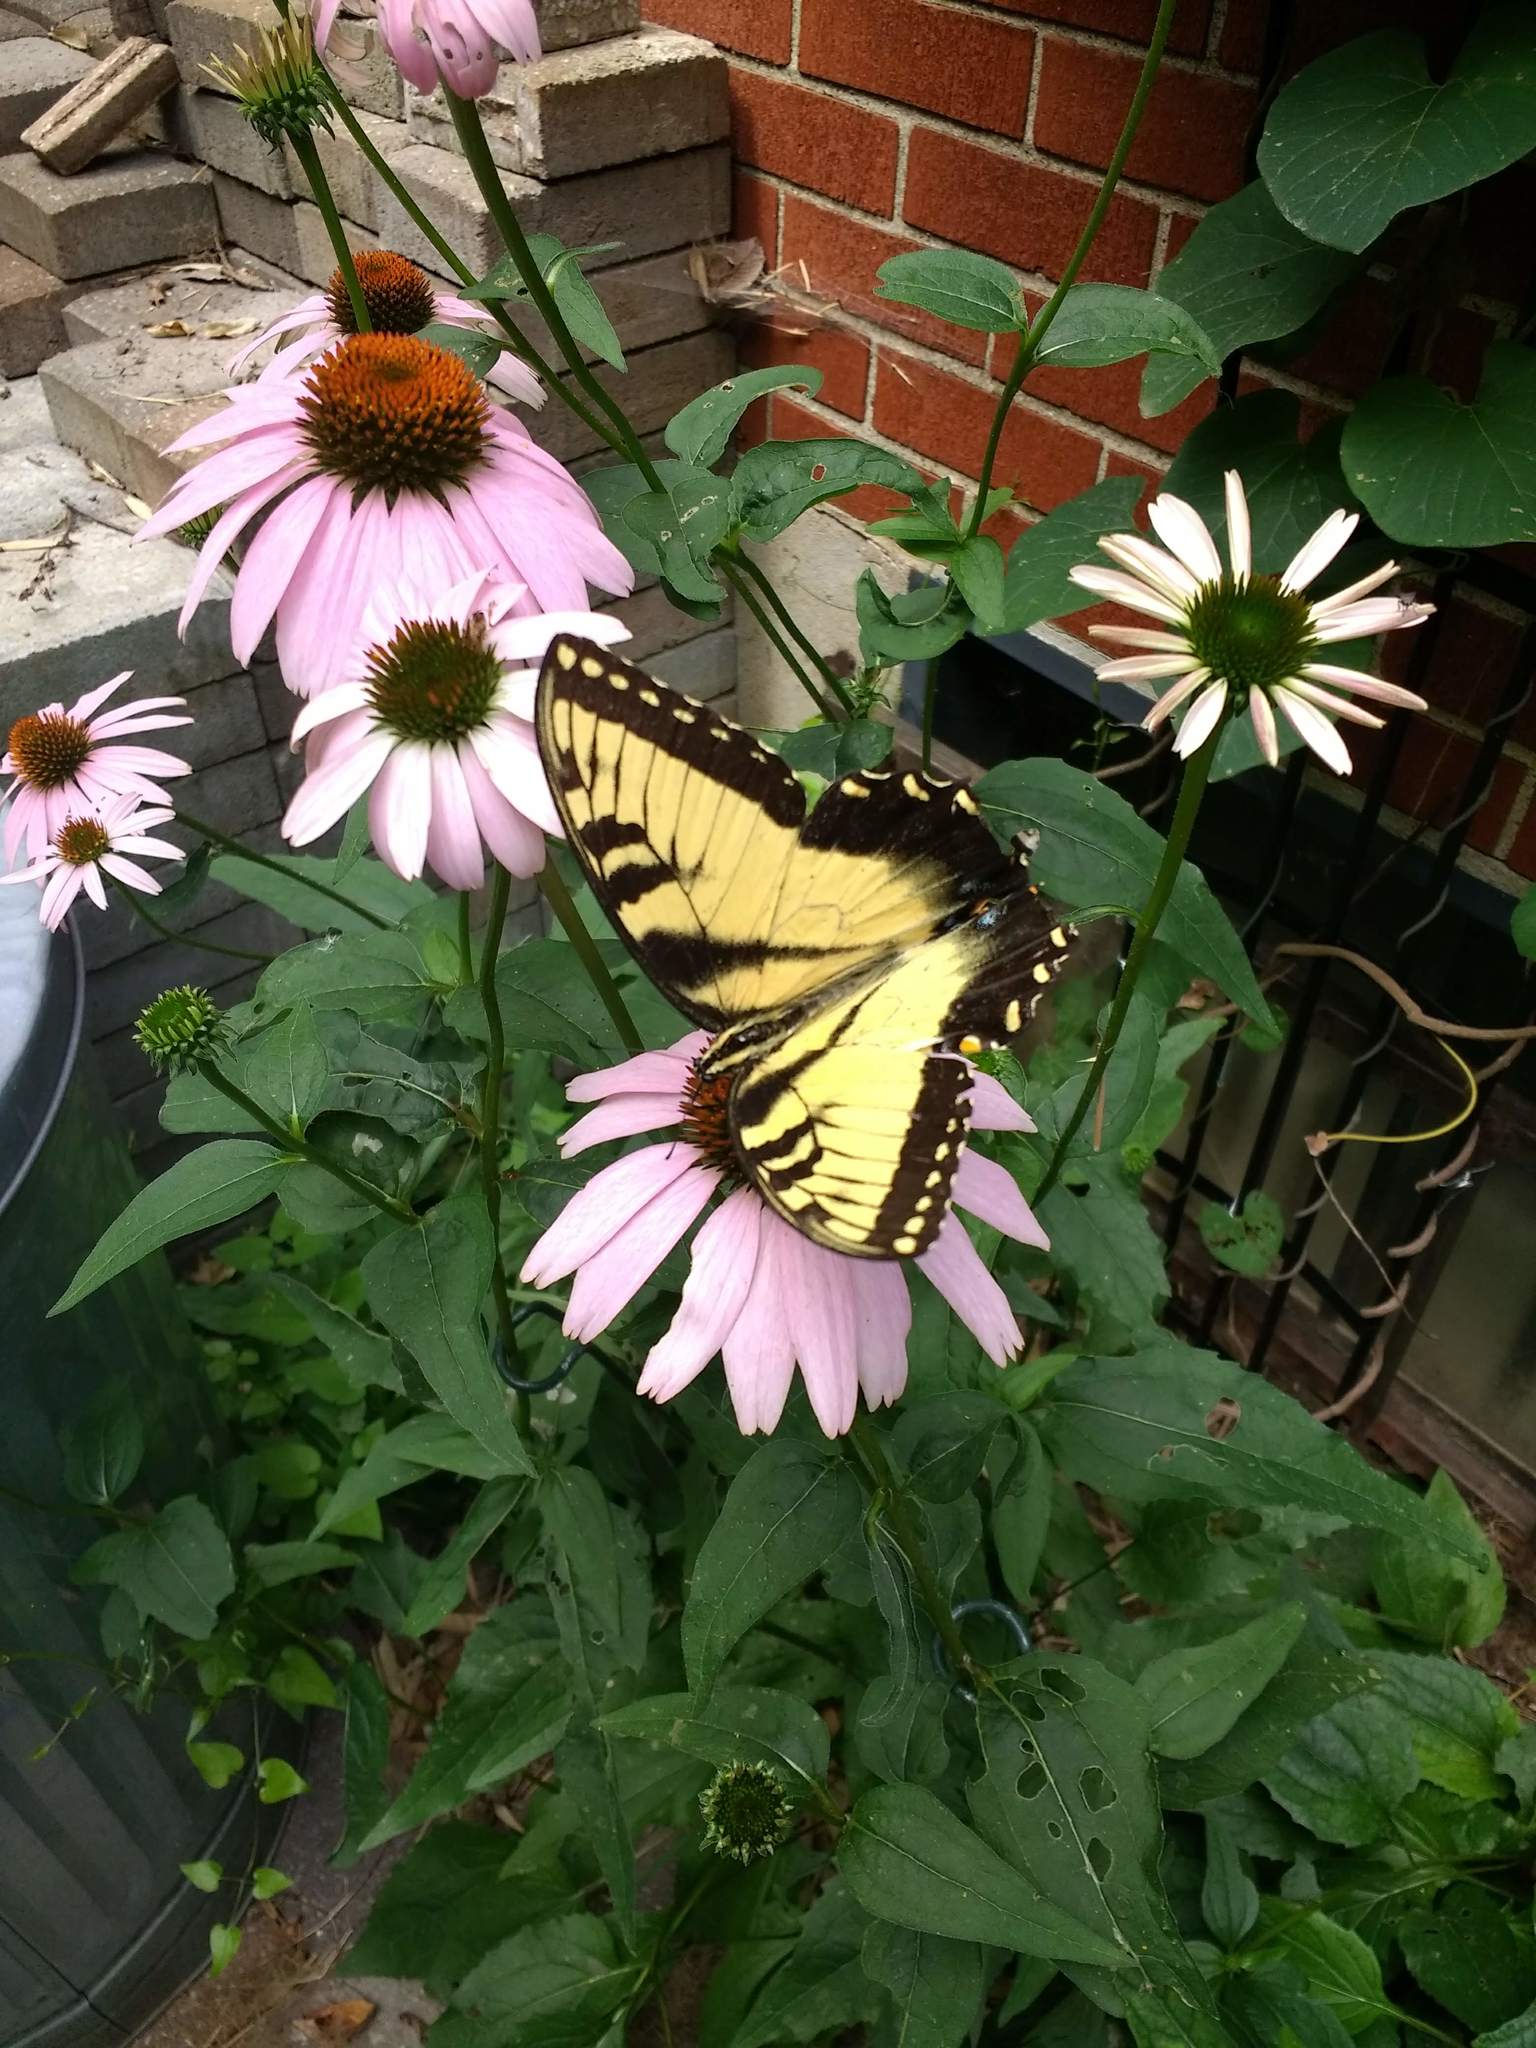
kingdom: Animalia
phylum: Arthropoda
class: Insecta
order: Lepidoptera
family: Papilionidae
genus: Papilio
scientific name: Papilio glaucus
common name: Tiger swallowtail
